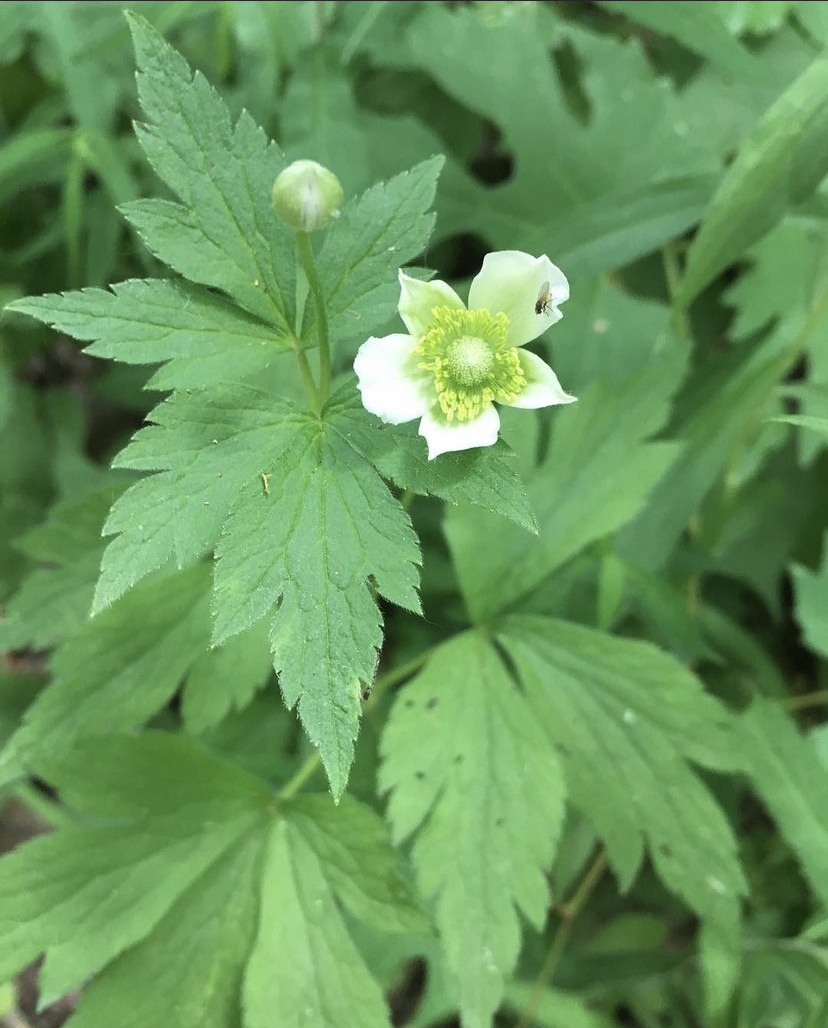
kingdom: Plantae
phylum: Tracheophyta
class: Magnoliopsida
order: Ranunculales
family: Ranunculaceae
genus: Anemone
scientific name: Anemone virginiana
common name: Tall anemone
